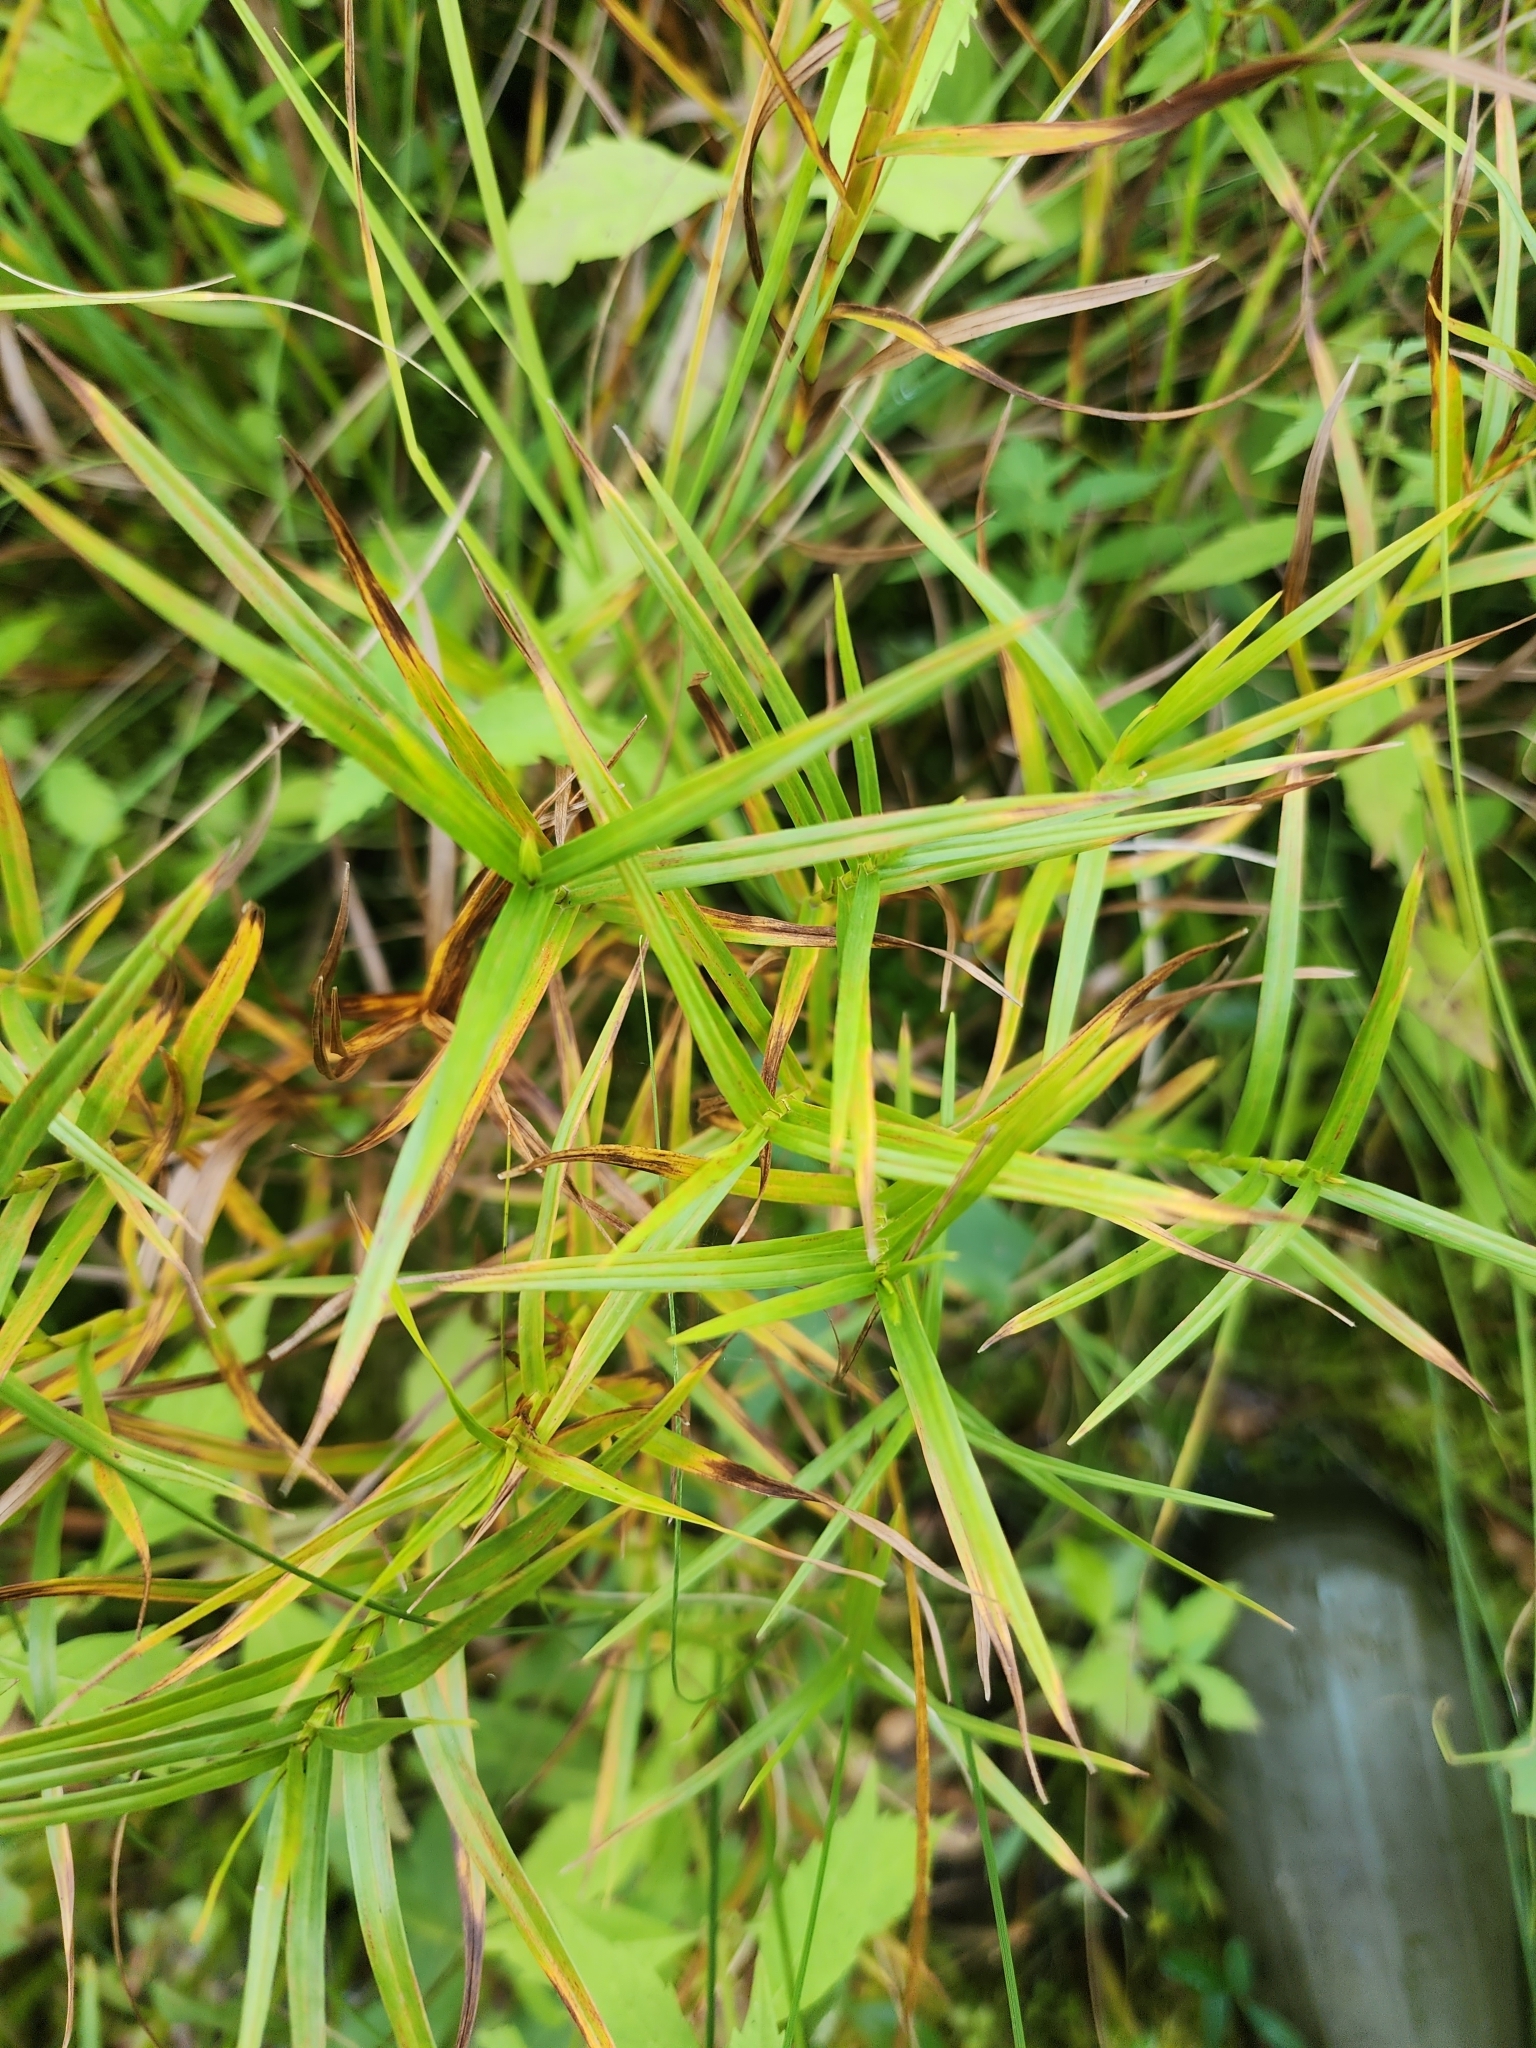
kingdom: Plantae
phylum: Tracheophyta
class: Liliopsida
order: Poales
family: Cyperaceae
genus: Dulichium
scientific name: Dulichium arundinaceum
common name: Three-way sedge
